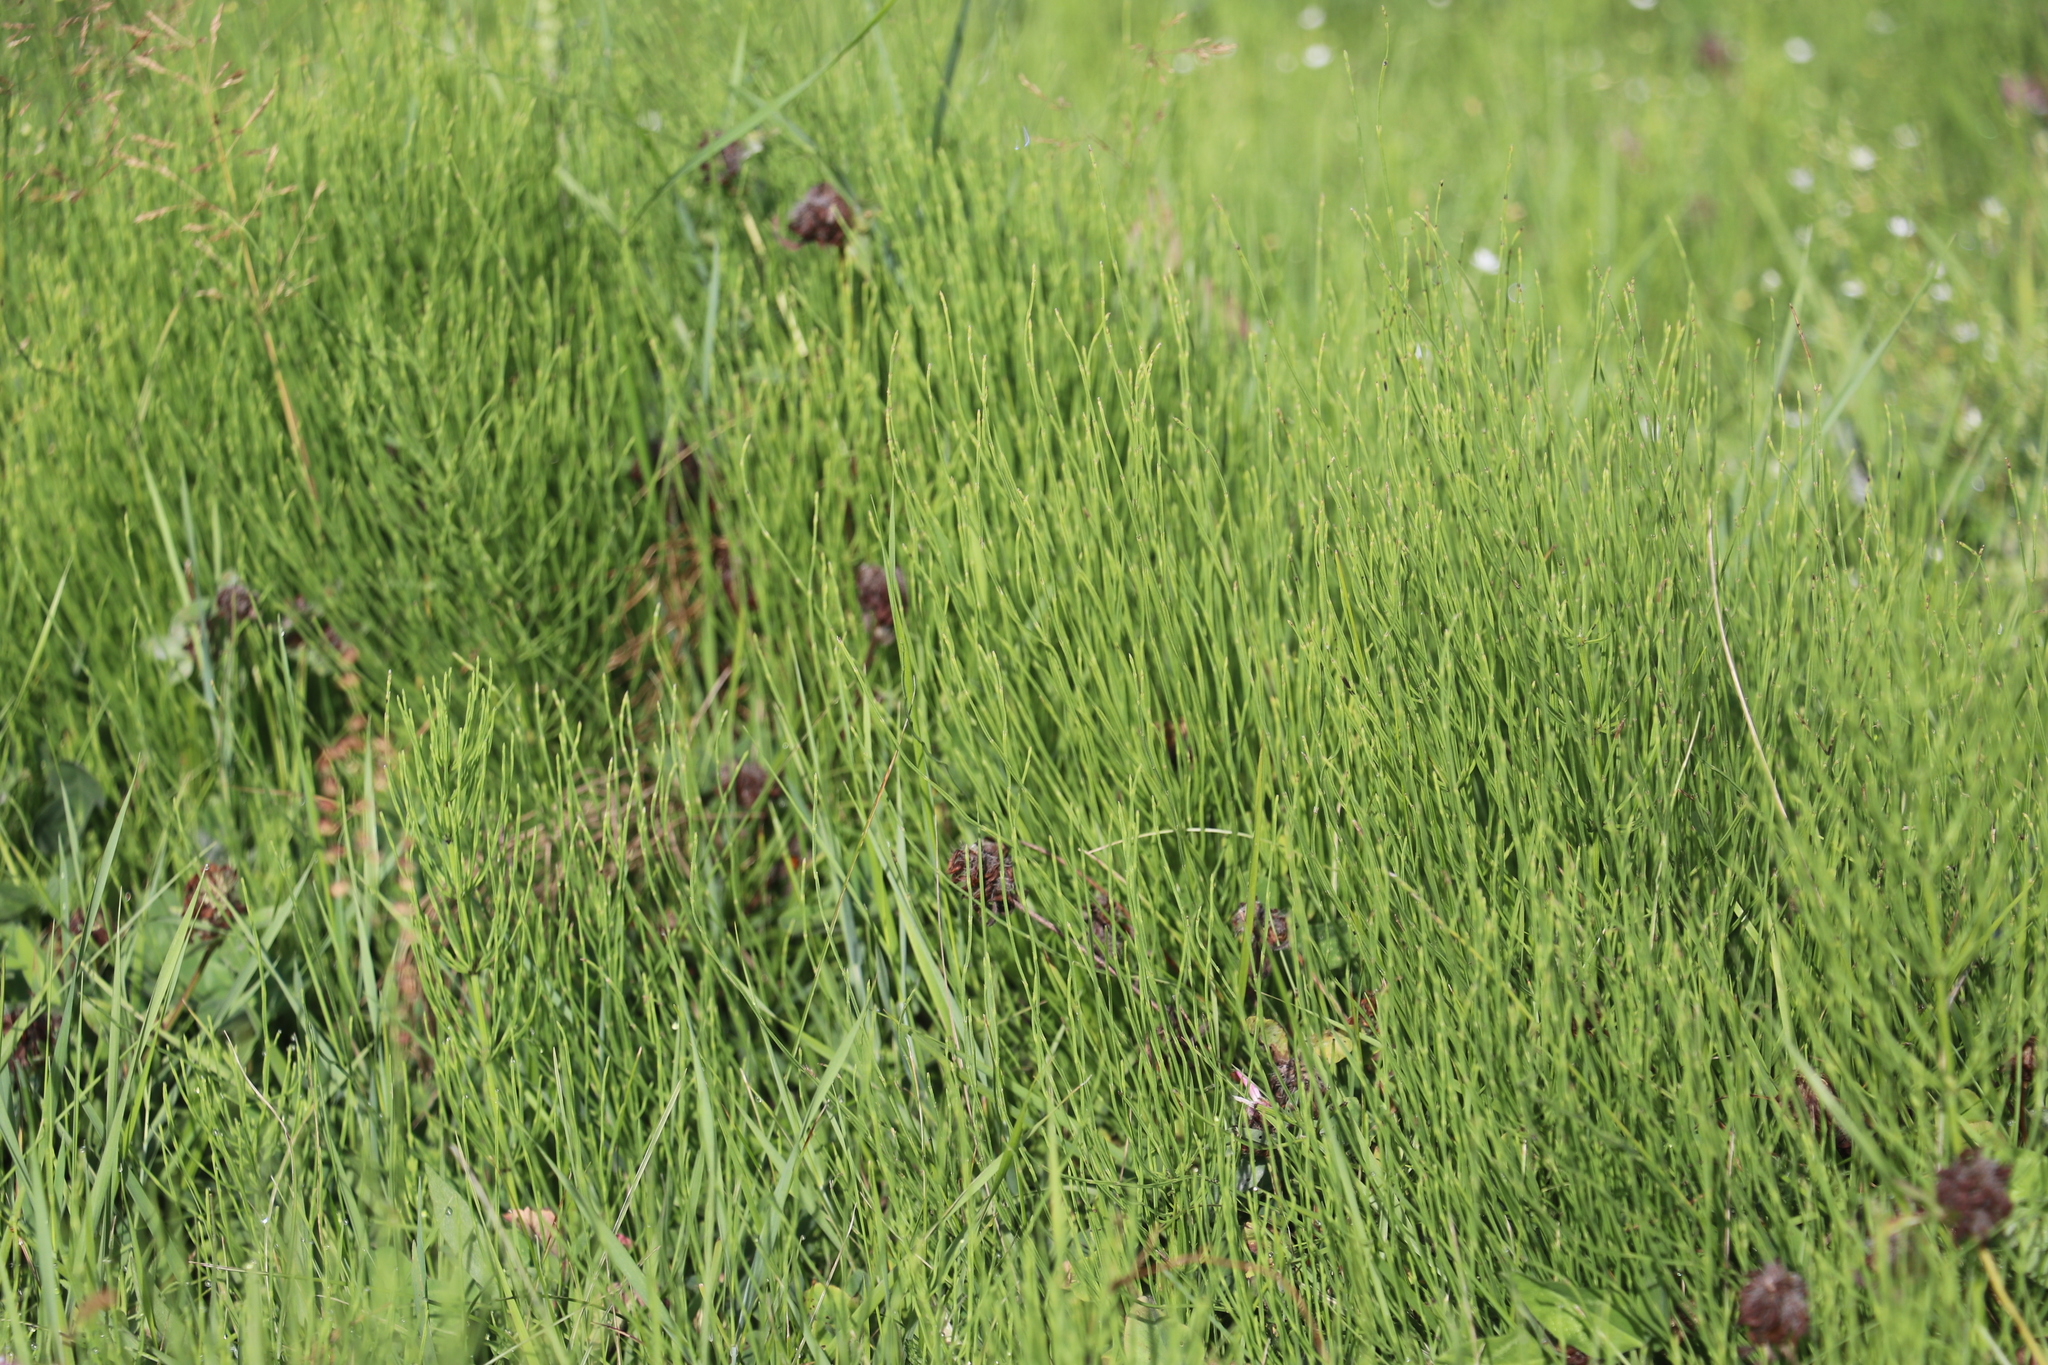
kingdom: Plantae
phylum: Tracheophyta
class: Polypodiopsida
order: Equisetales
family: Equisetaceae
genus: Equisetum
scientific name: Equisetum arvense
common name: Field horsetail
